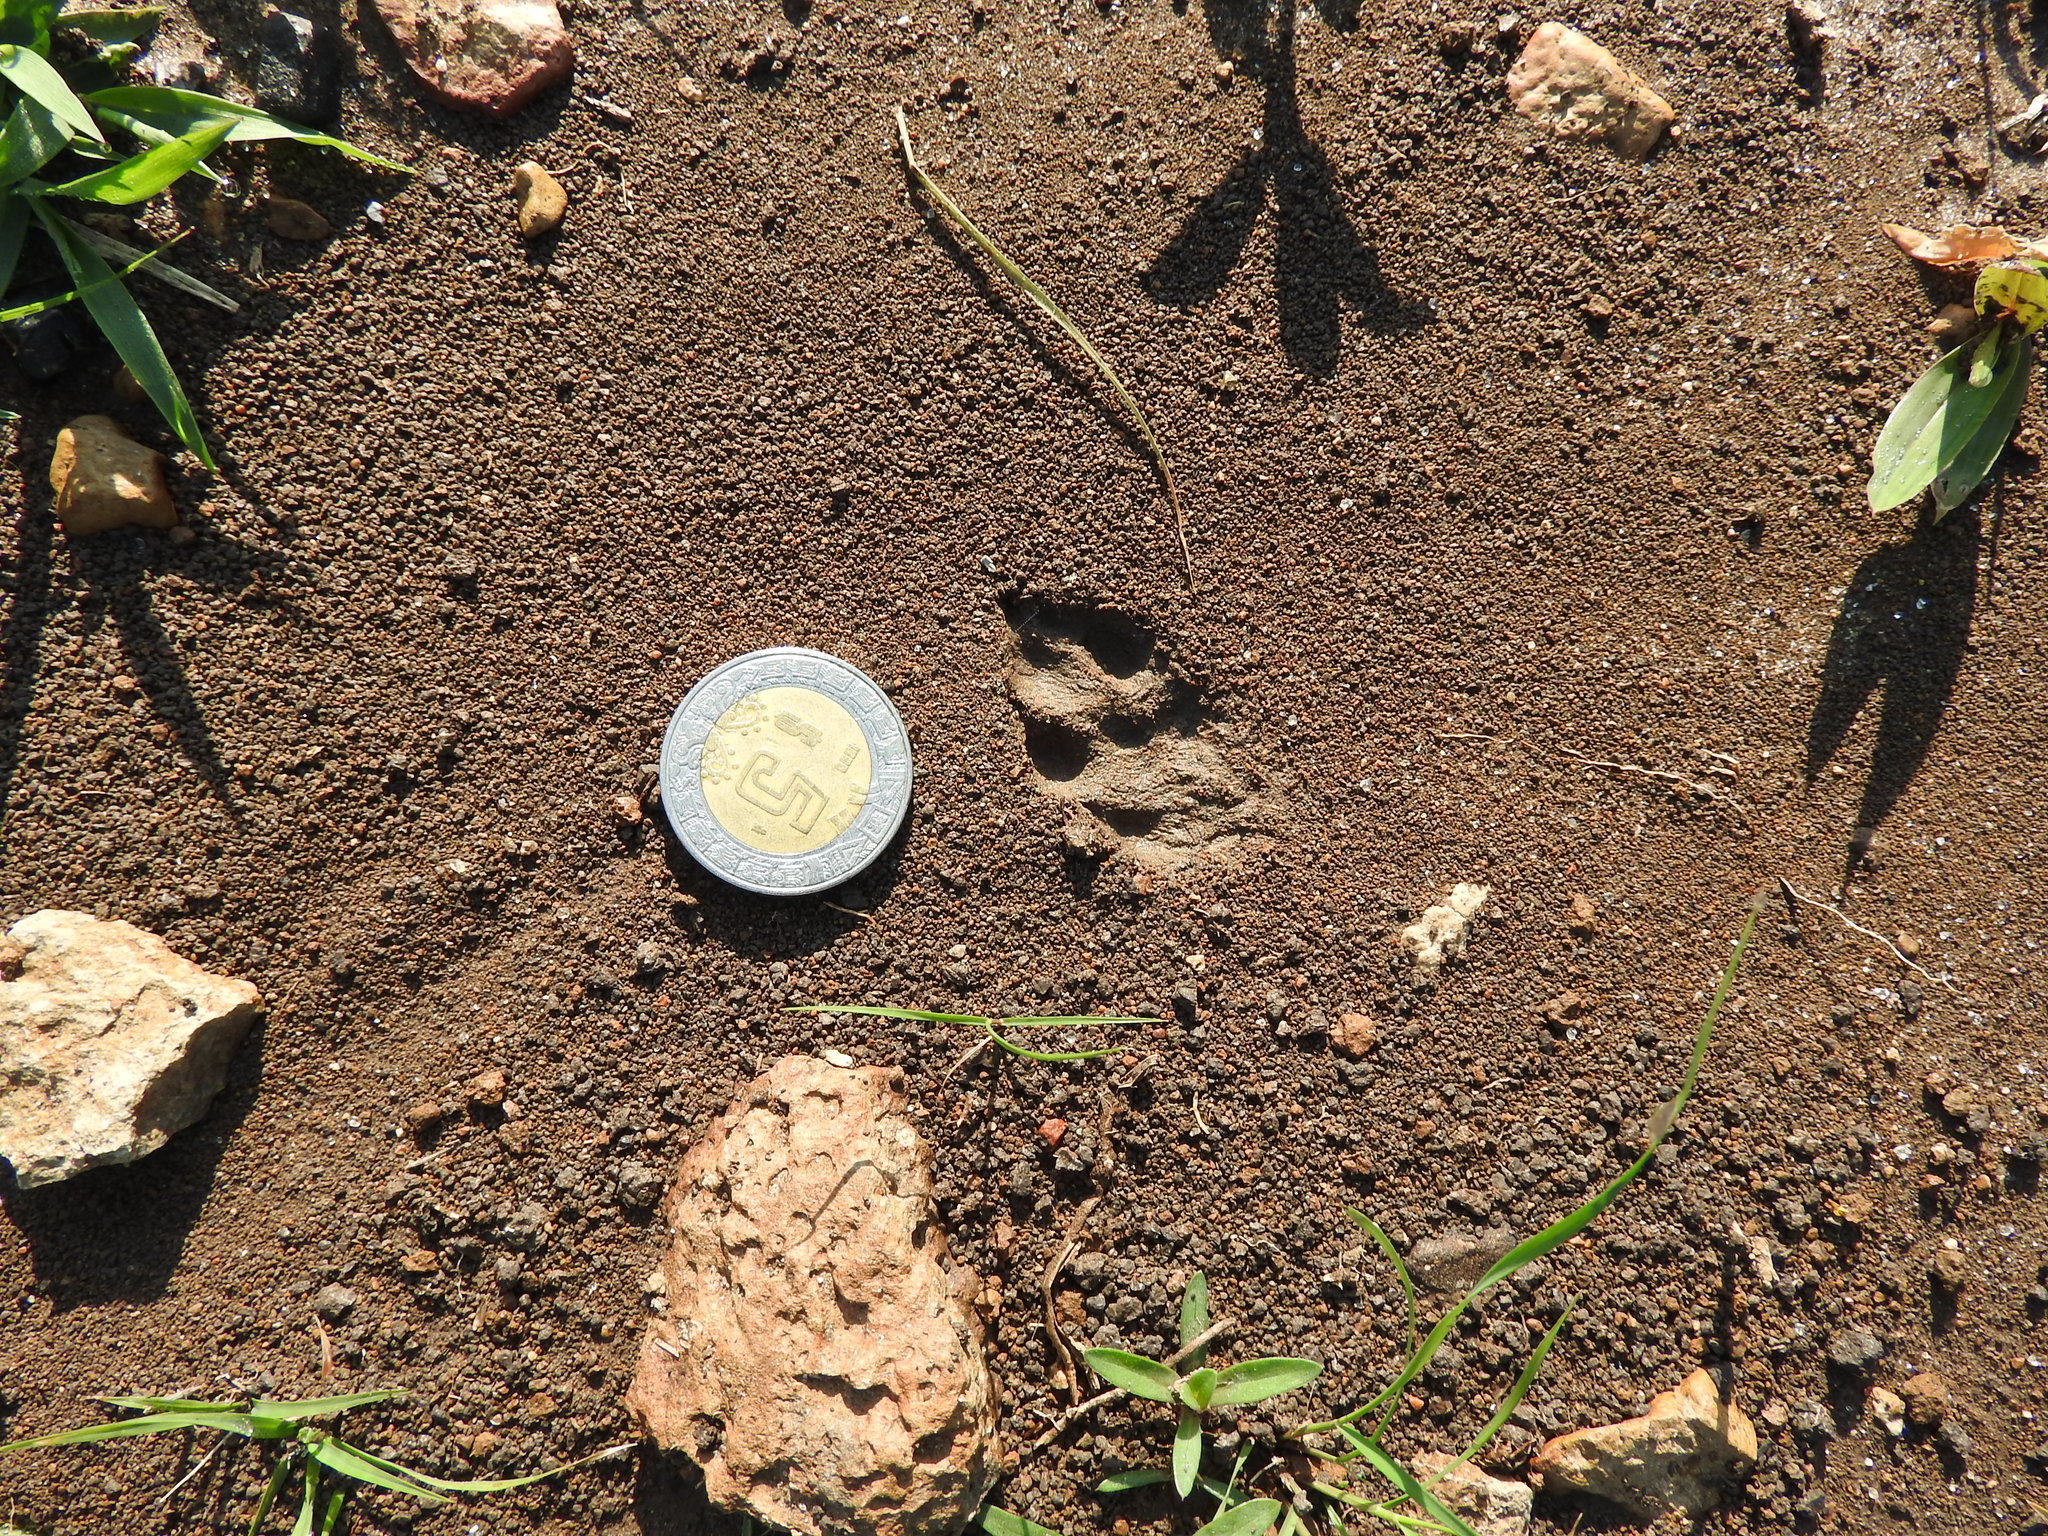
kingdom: Animalia
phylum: Chordata
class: Mammalia
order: Lagomorpha
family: Leporidae
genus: Sylvilagus
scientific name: Sylvilagus floridanus
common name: Eastern cottontail
